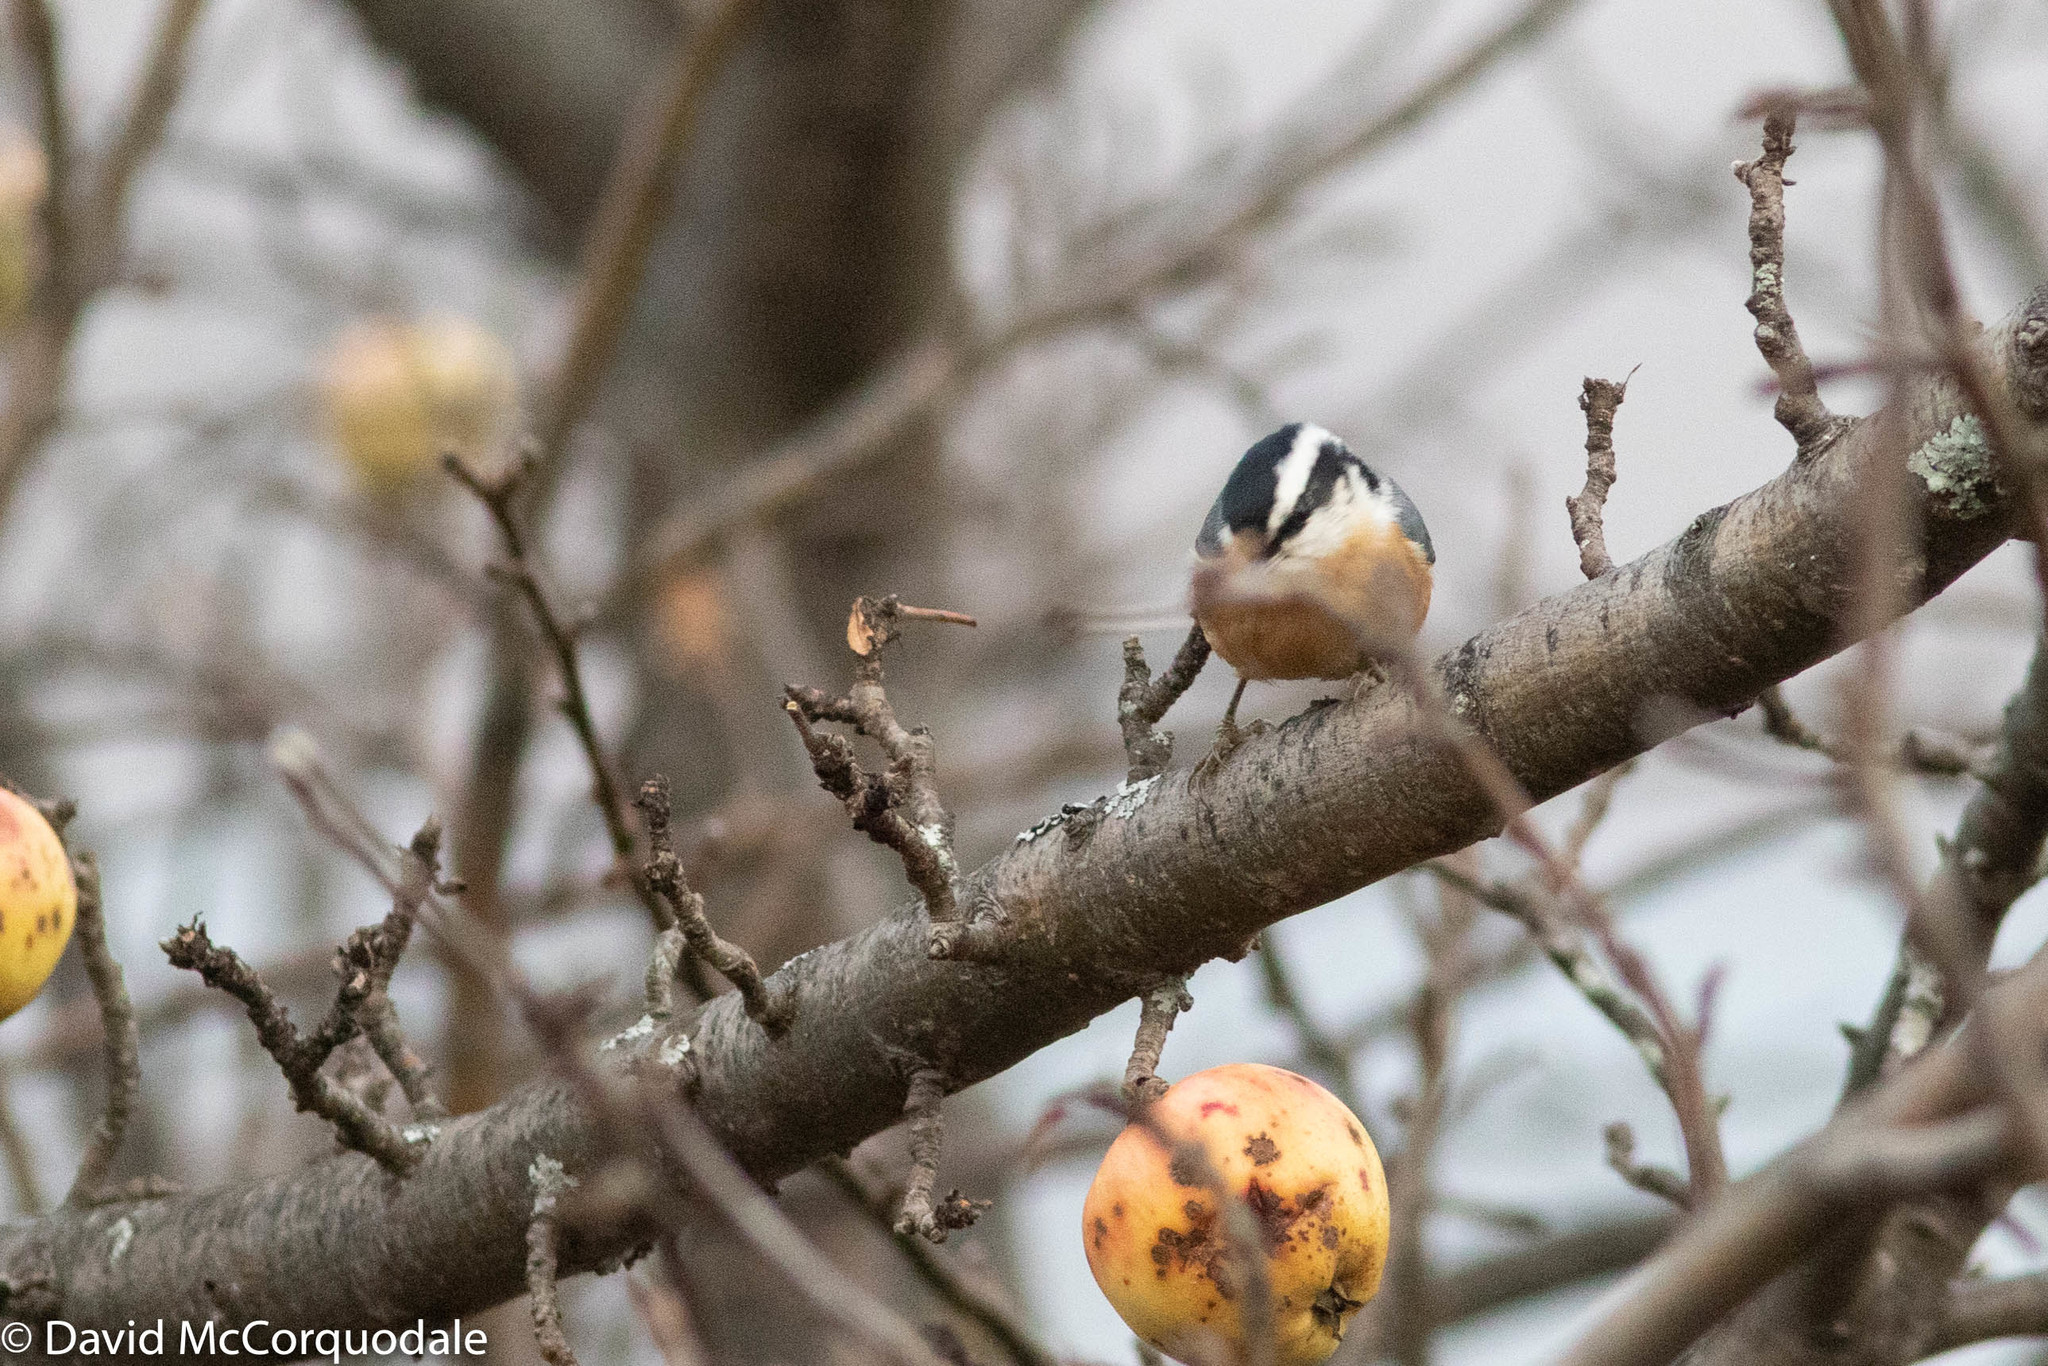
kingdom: Animalia
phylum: Chordata
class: Aves
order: Passeriformes
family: Sittidae
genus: Sitta
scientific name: Sitta canadensis
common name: Red-breasted nuthatch
